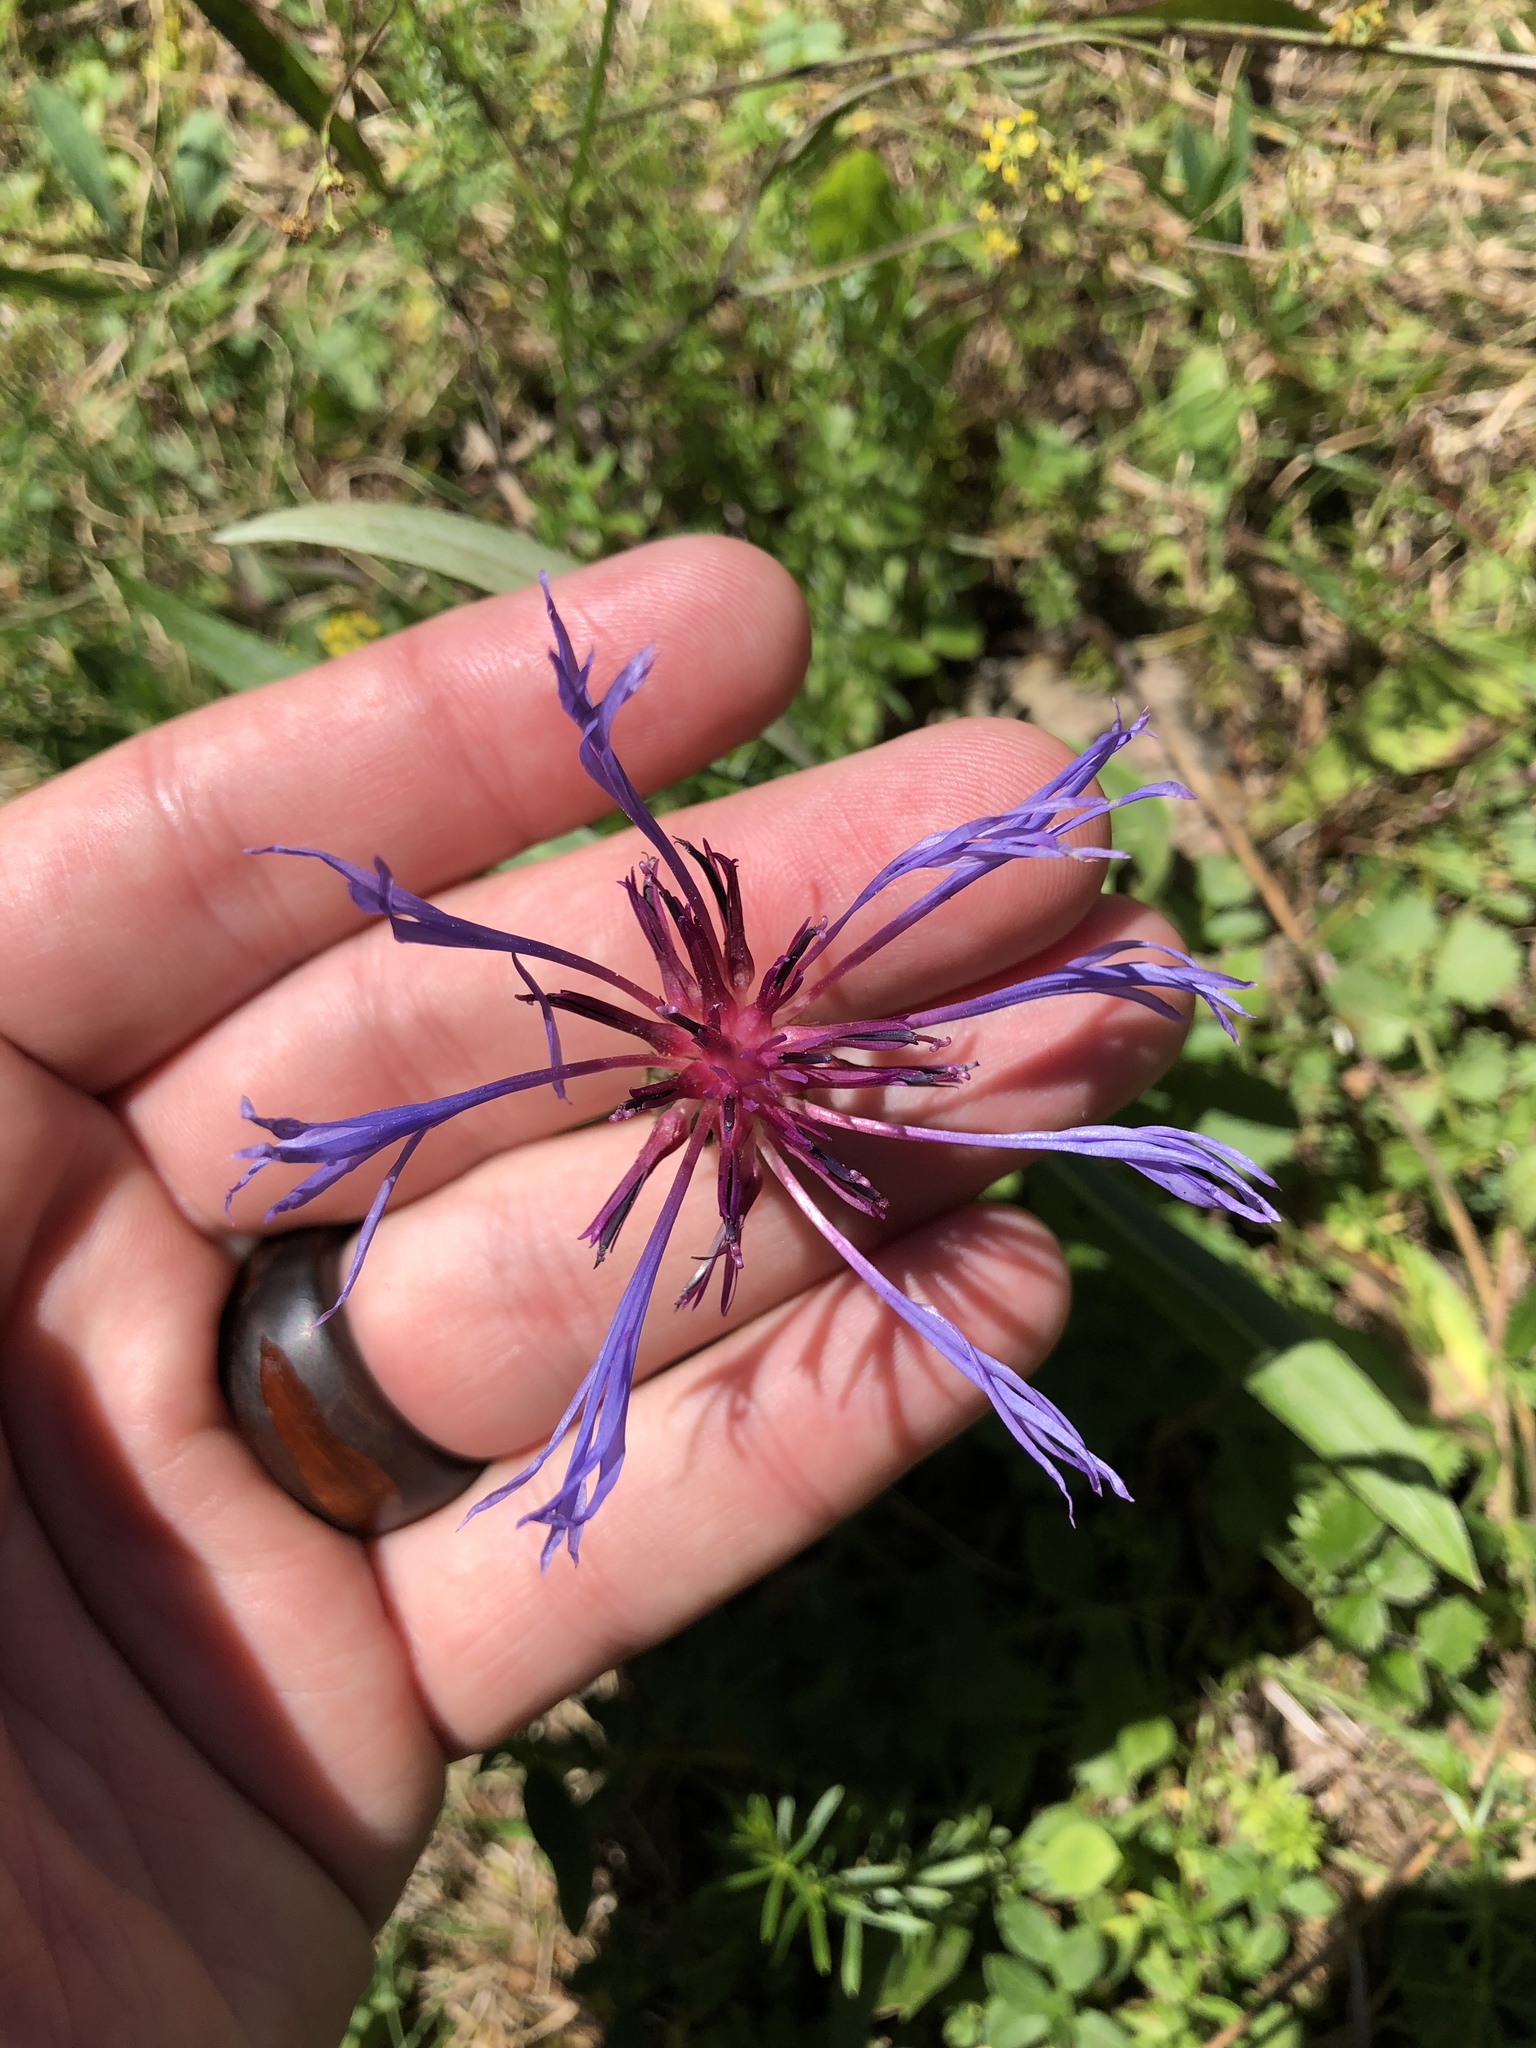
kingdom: Plantae
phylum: Tracheophyta
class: Magnoliopsida
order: Asterales
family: Asteraceae
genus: Centaurea
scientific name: Centaurea triumfettii
